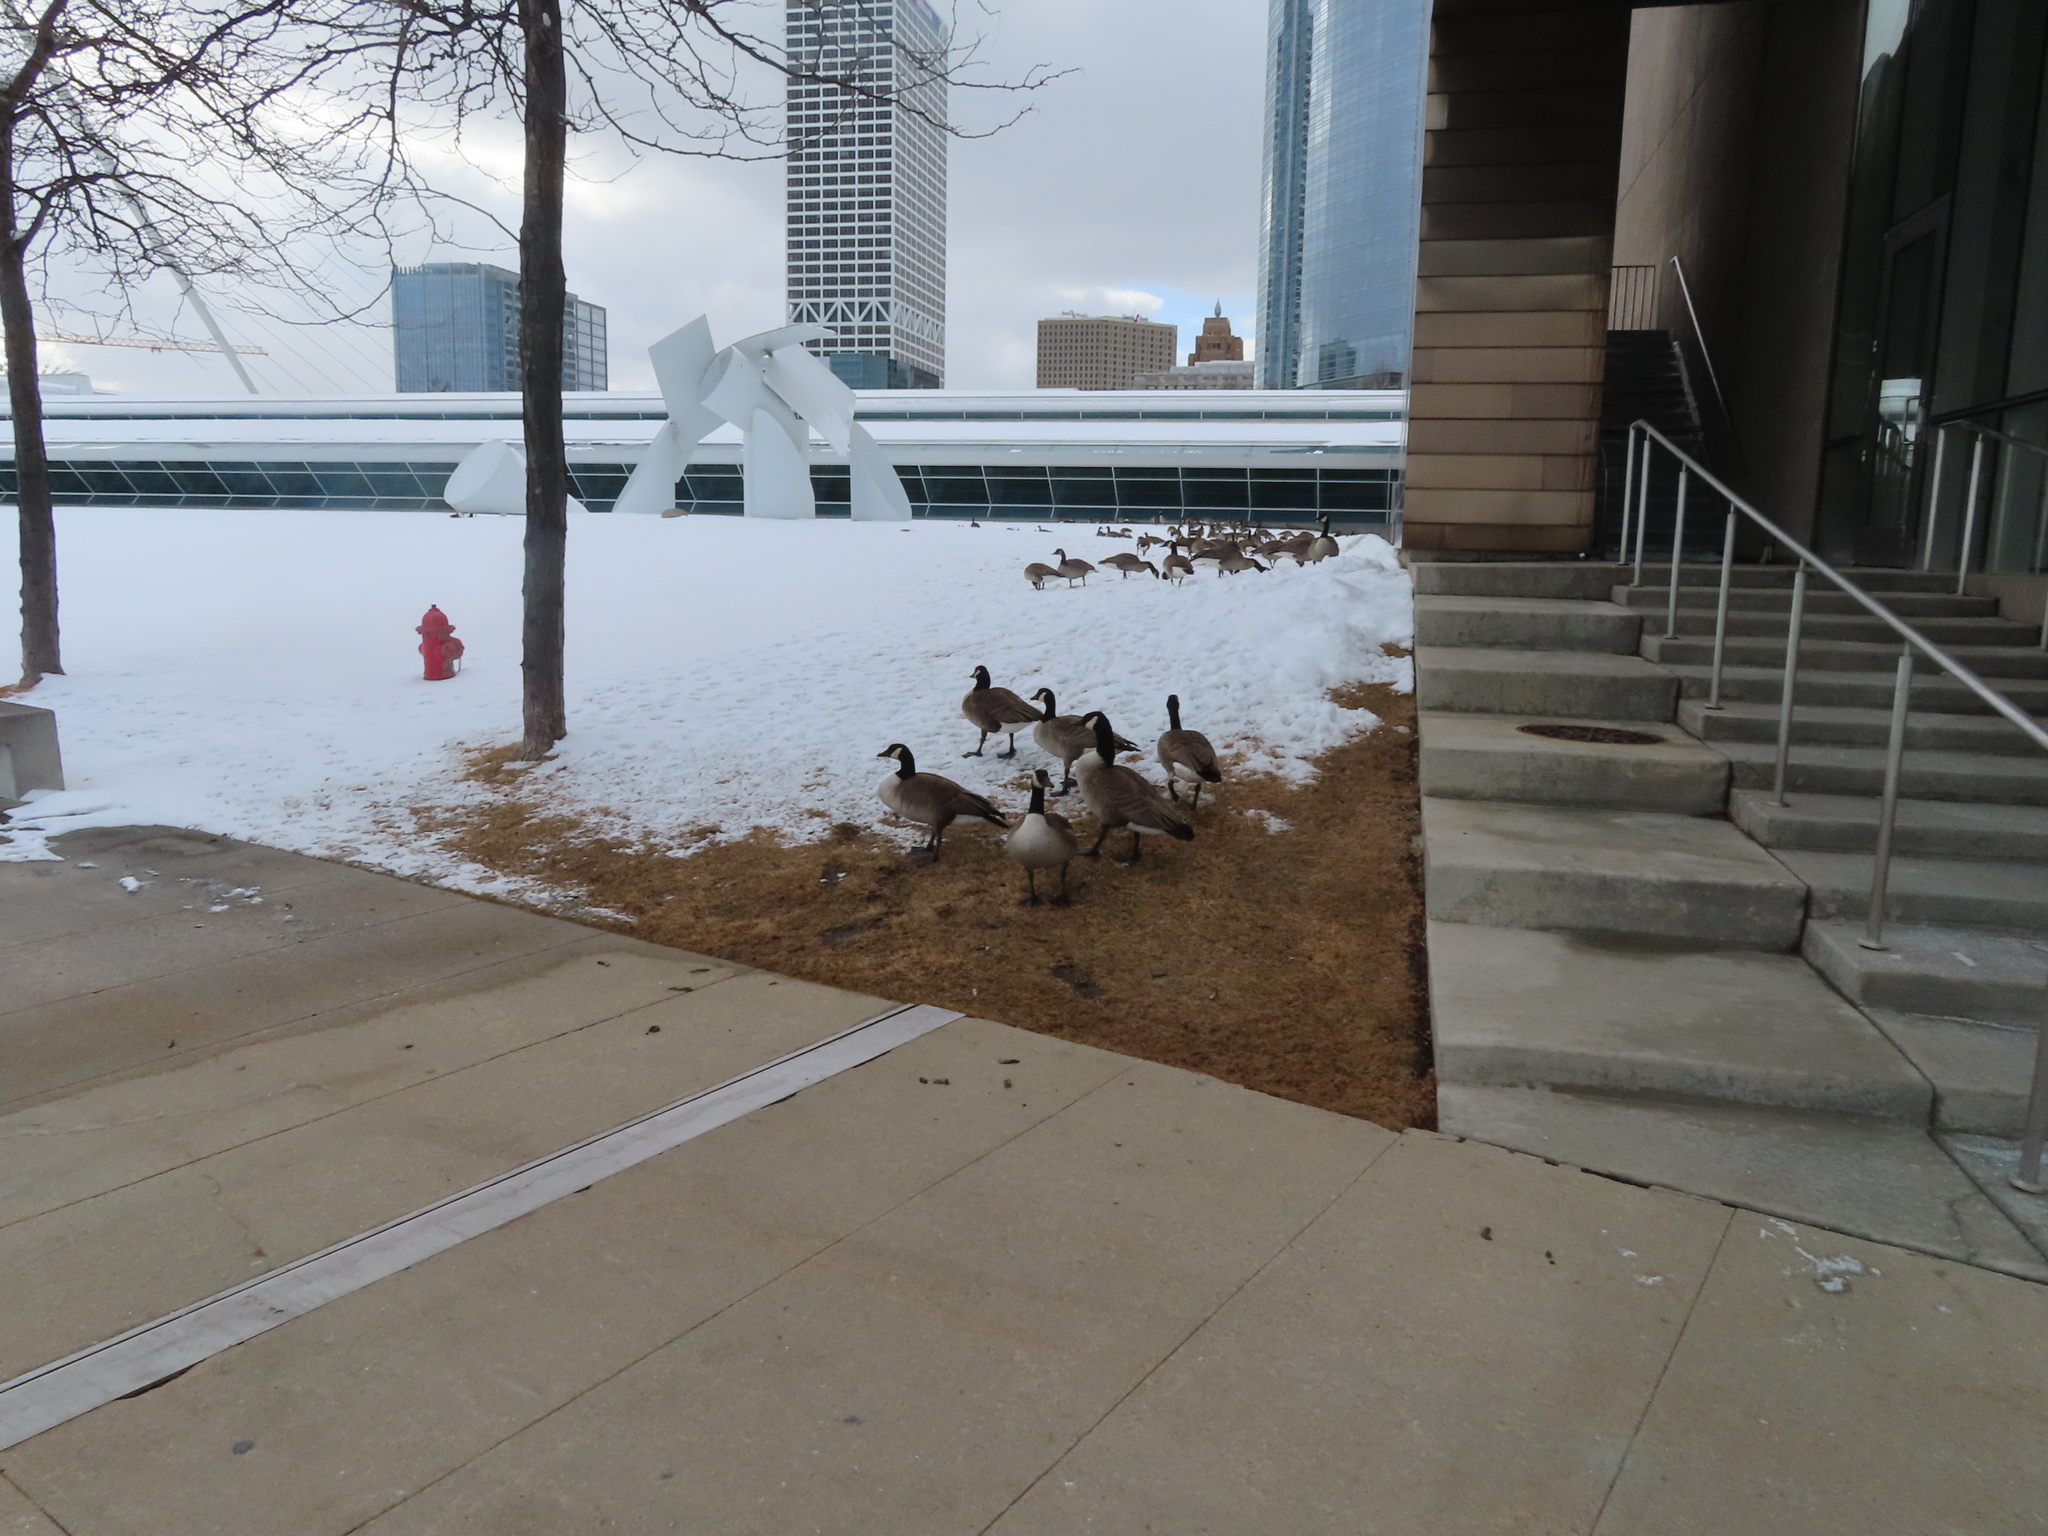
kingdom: Animalia
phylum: Chordata
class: Aves
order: Anseriformes
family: Anatidae
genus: Branta
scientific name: Branta canadensis
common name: Canada goose
